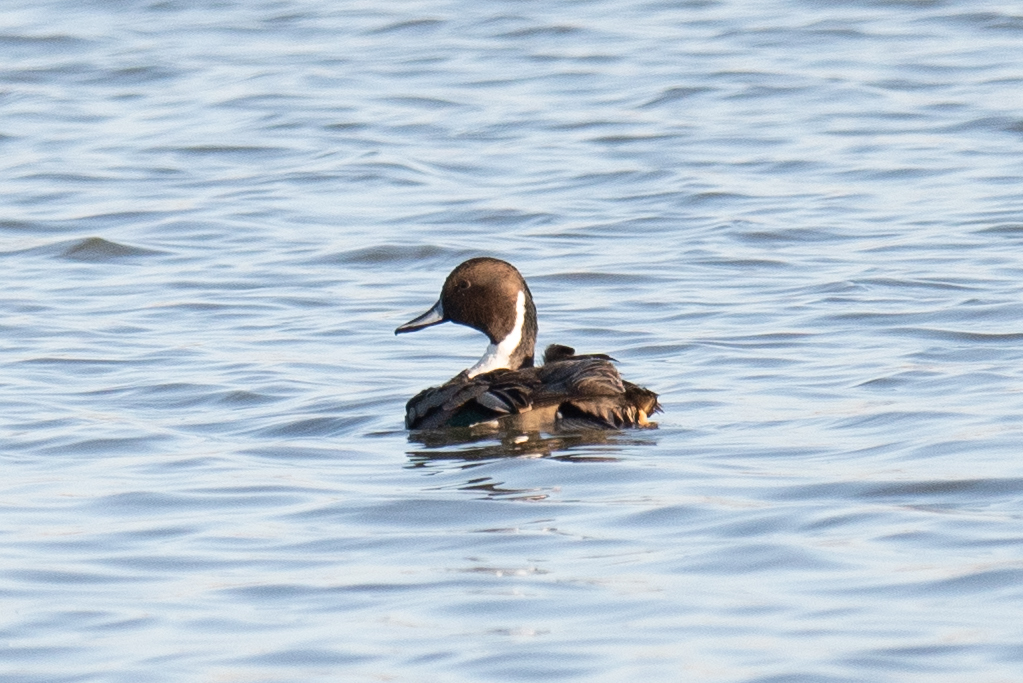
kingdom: Animalia
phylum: Chordata
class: Aves
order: Anseriformes
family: Anatidae
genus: Anas
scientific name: Anas acuta
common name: Northern pintail
